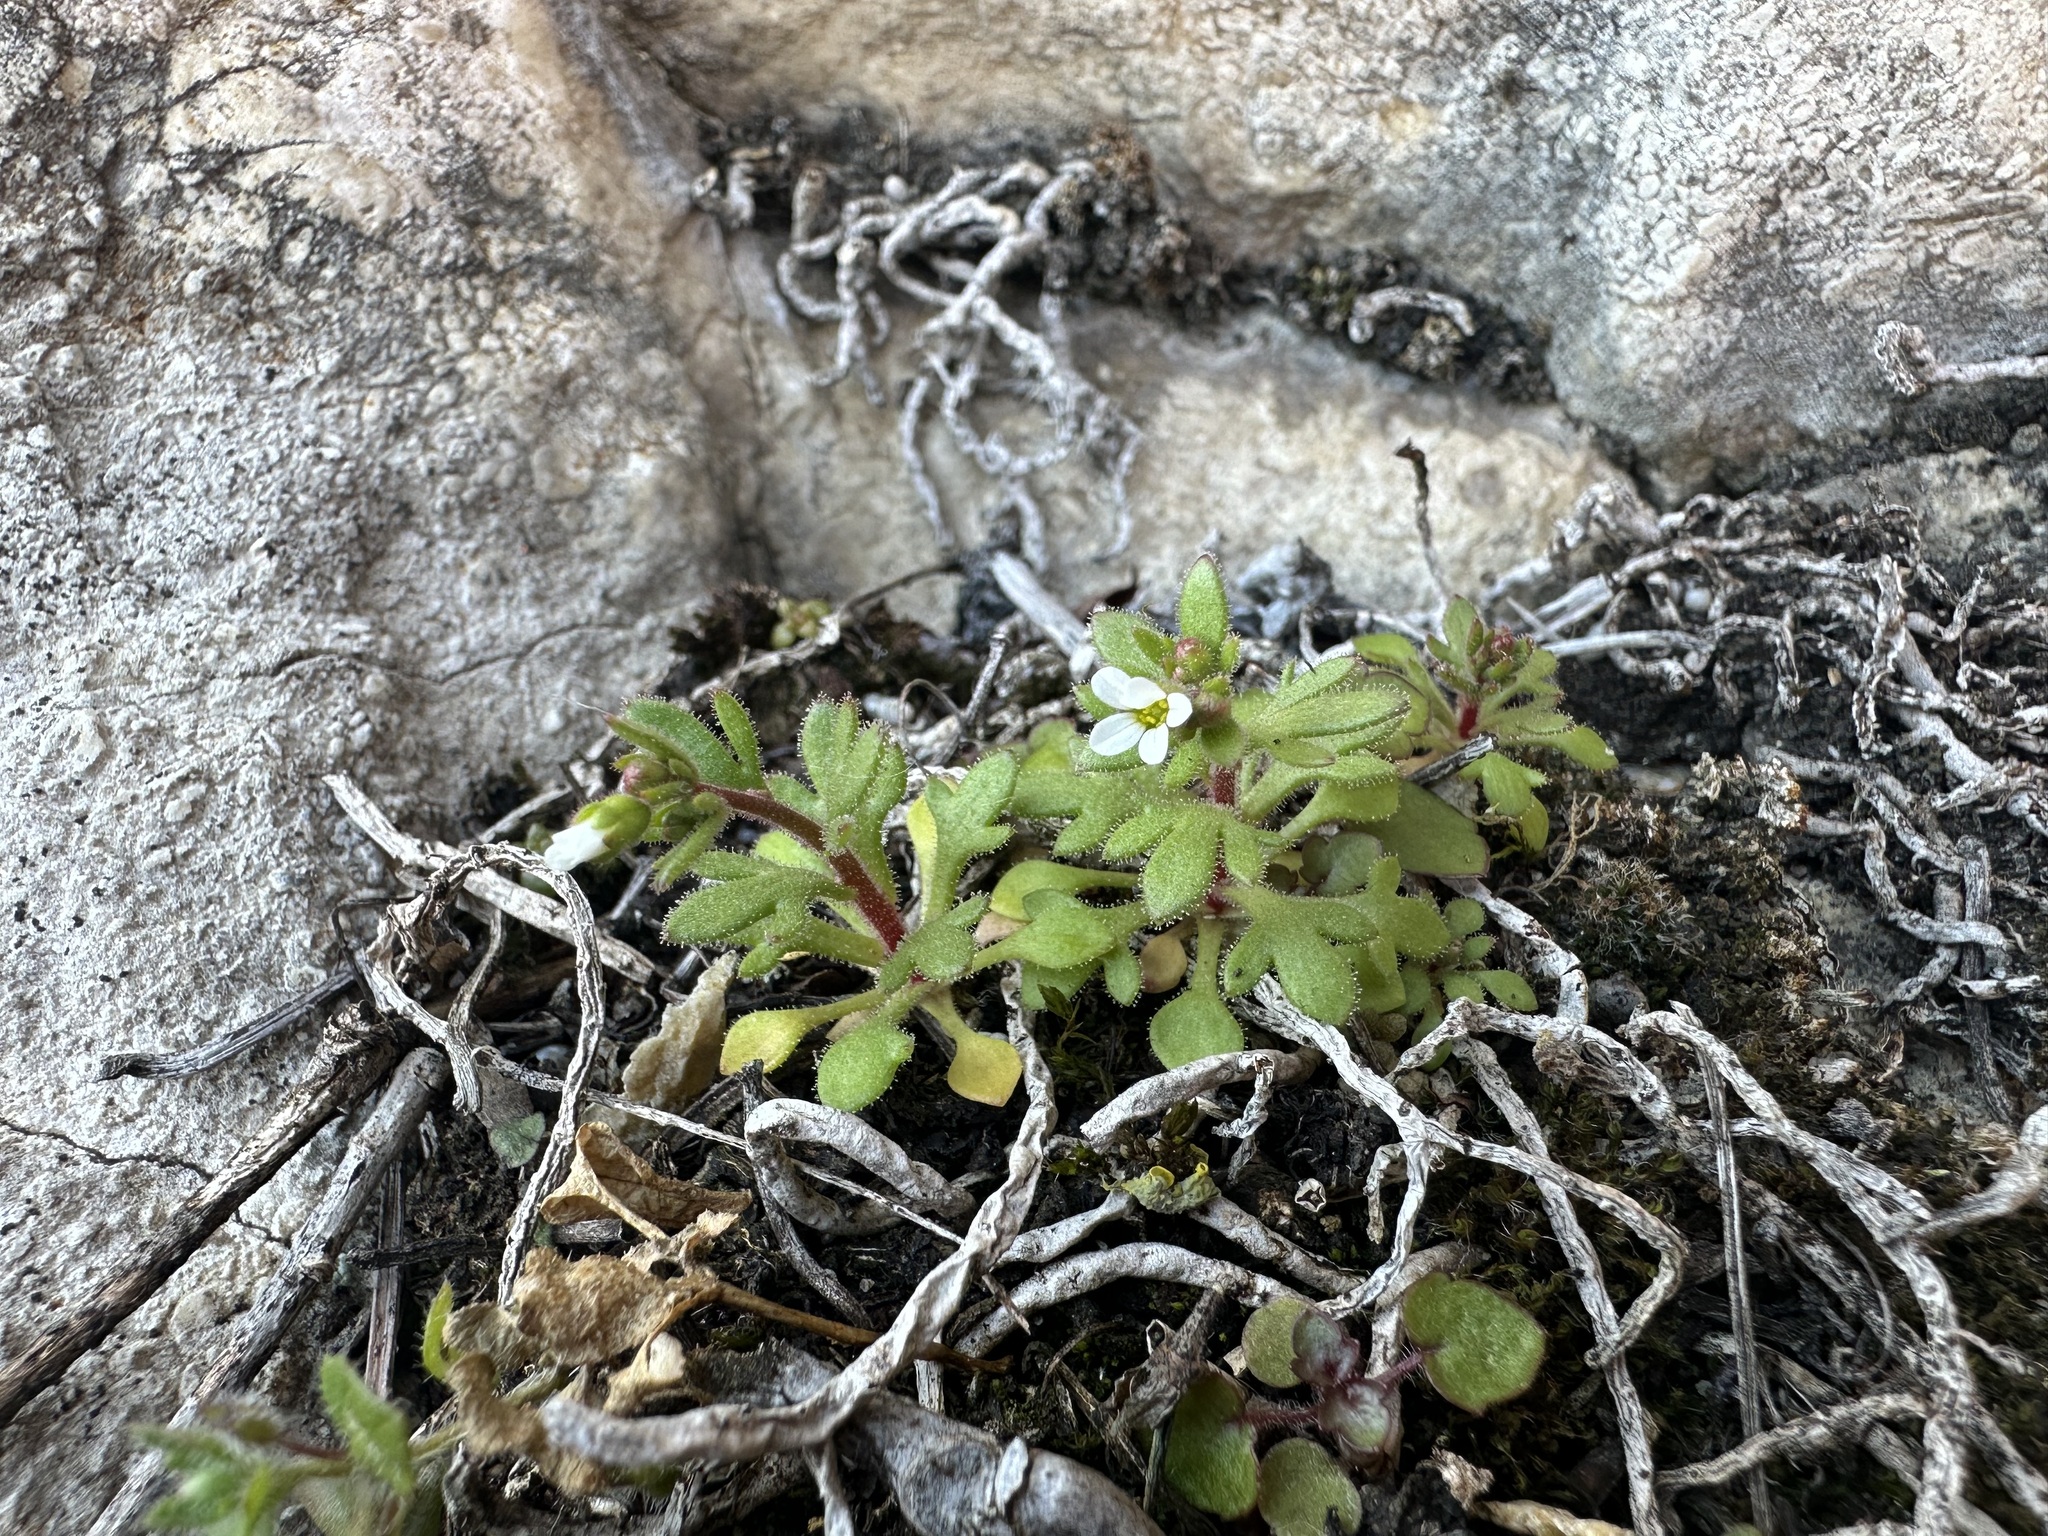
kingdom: Plantae
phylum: Tracheophyta
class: Magnoliopsida
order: Saxifragales
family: Saxifragaceae
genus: Saxifraga
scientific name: Saxifraga tridactylites
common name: Rue-leaved saxifrage
